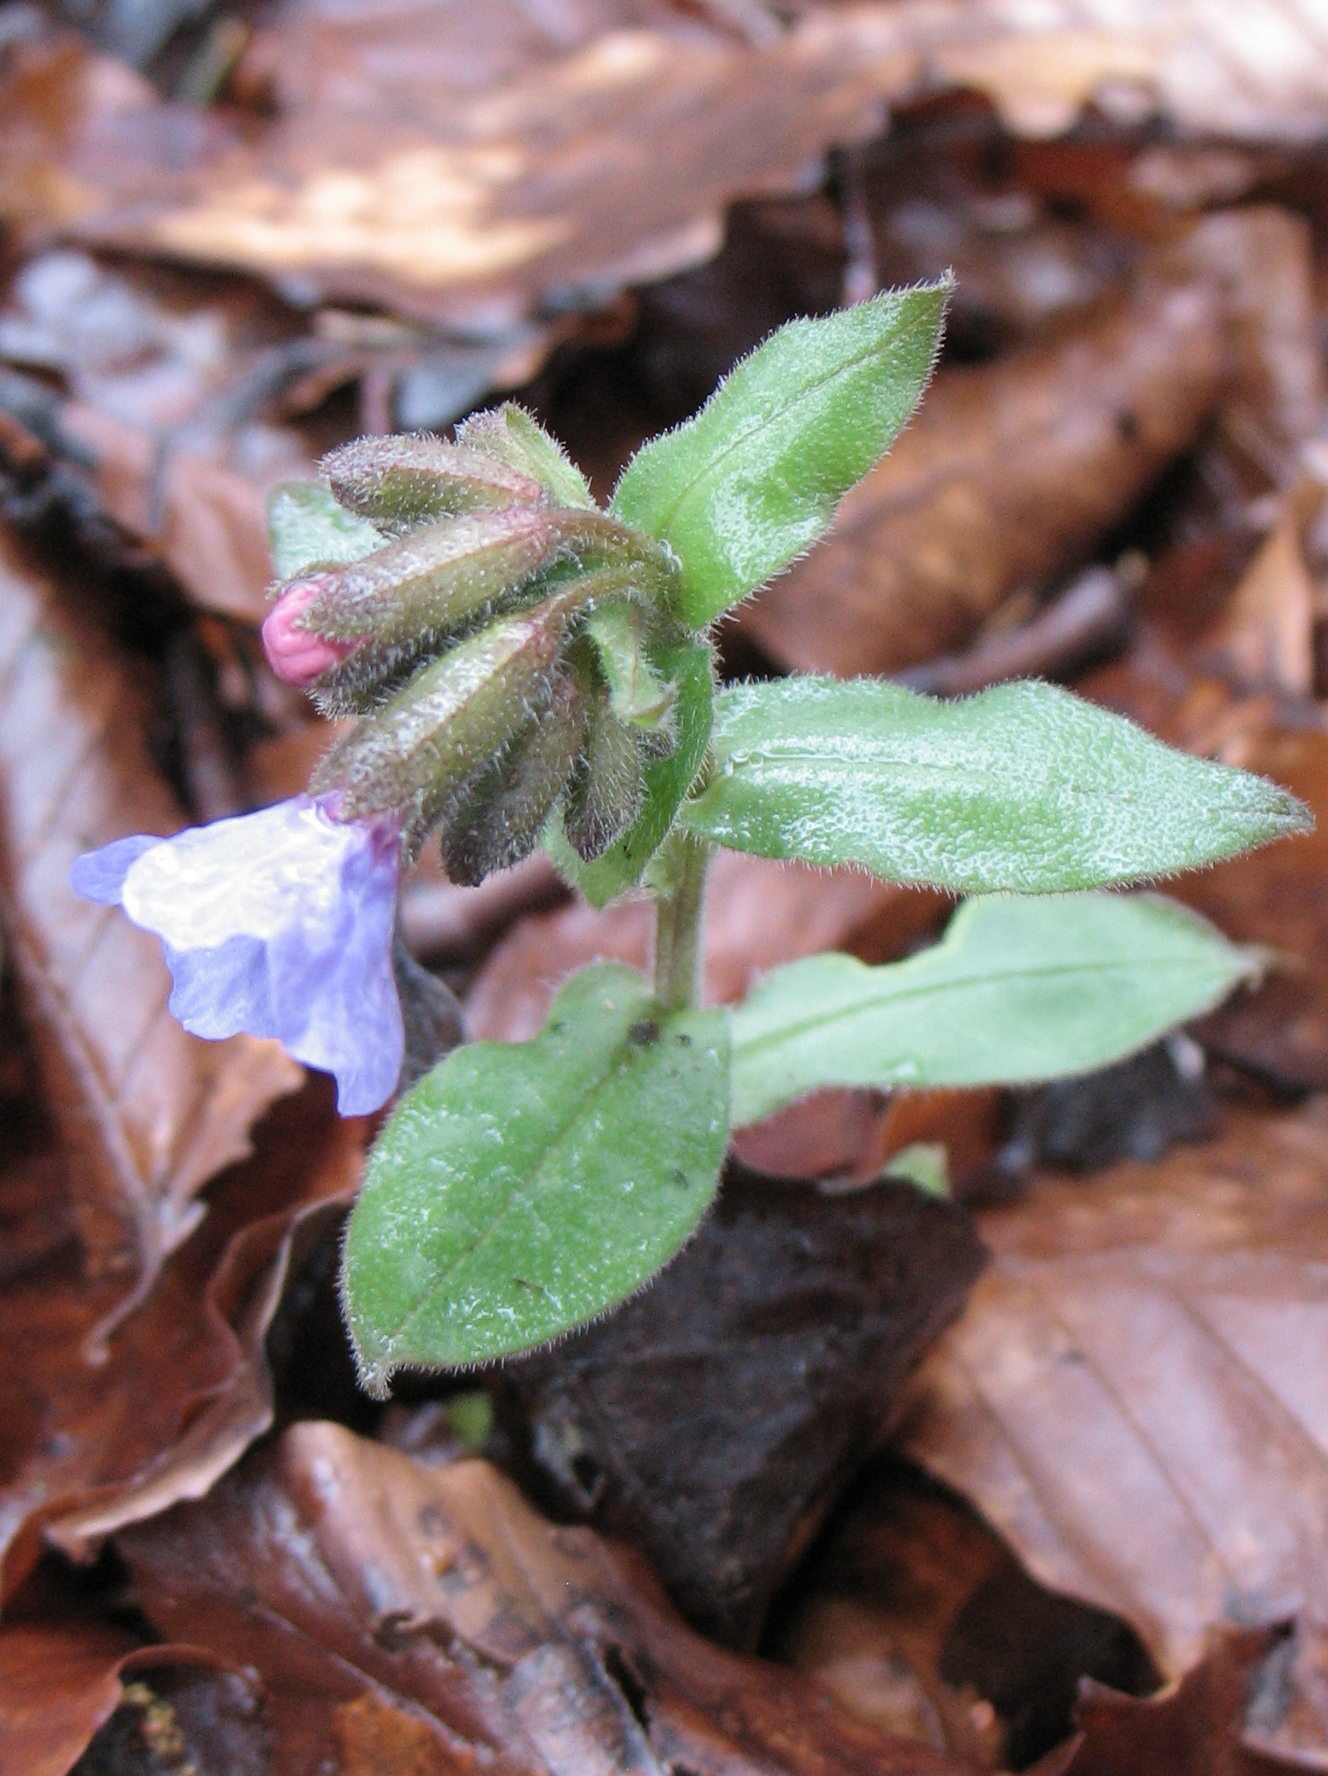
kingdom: Plantae
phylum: Tracheophyta
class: Magnoliopsida
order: Boraginales
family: Boraginaceae
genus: Pulmonaria
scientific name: Pulmonaria obscura
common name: Suffolk lungwort
